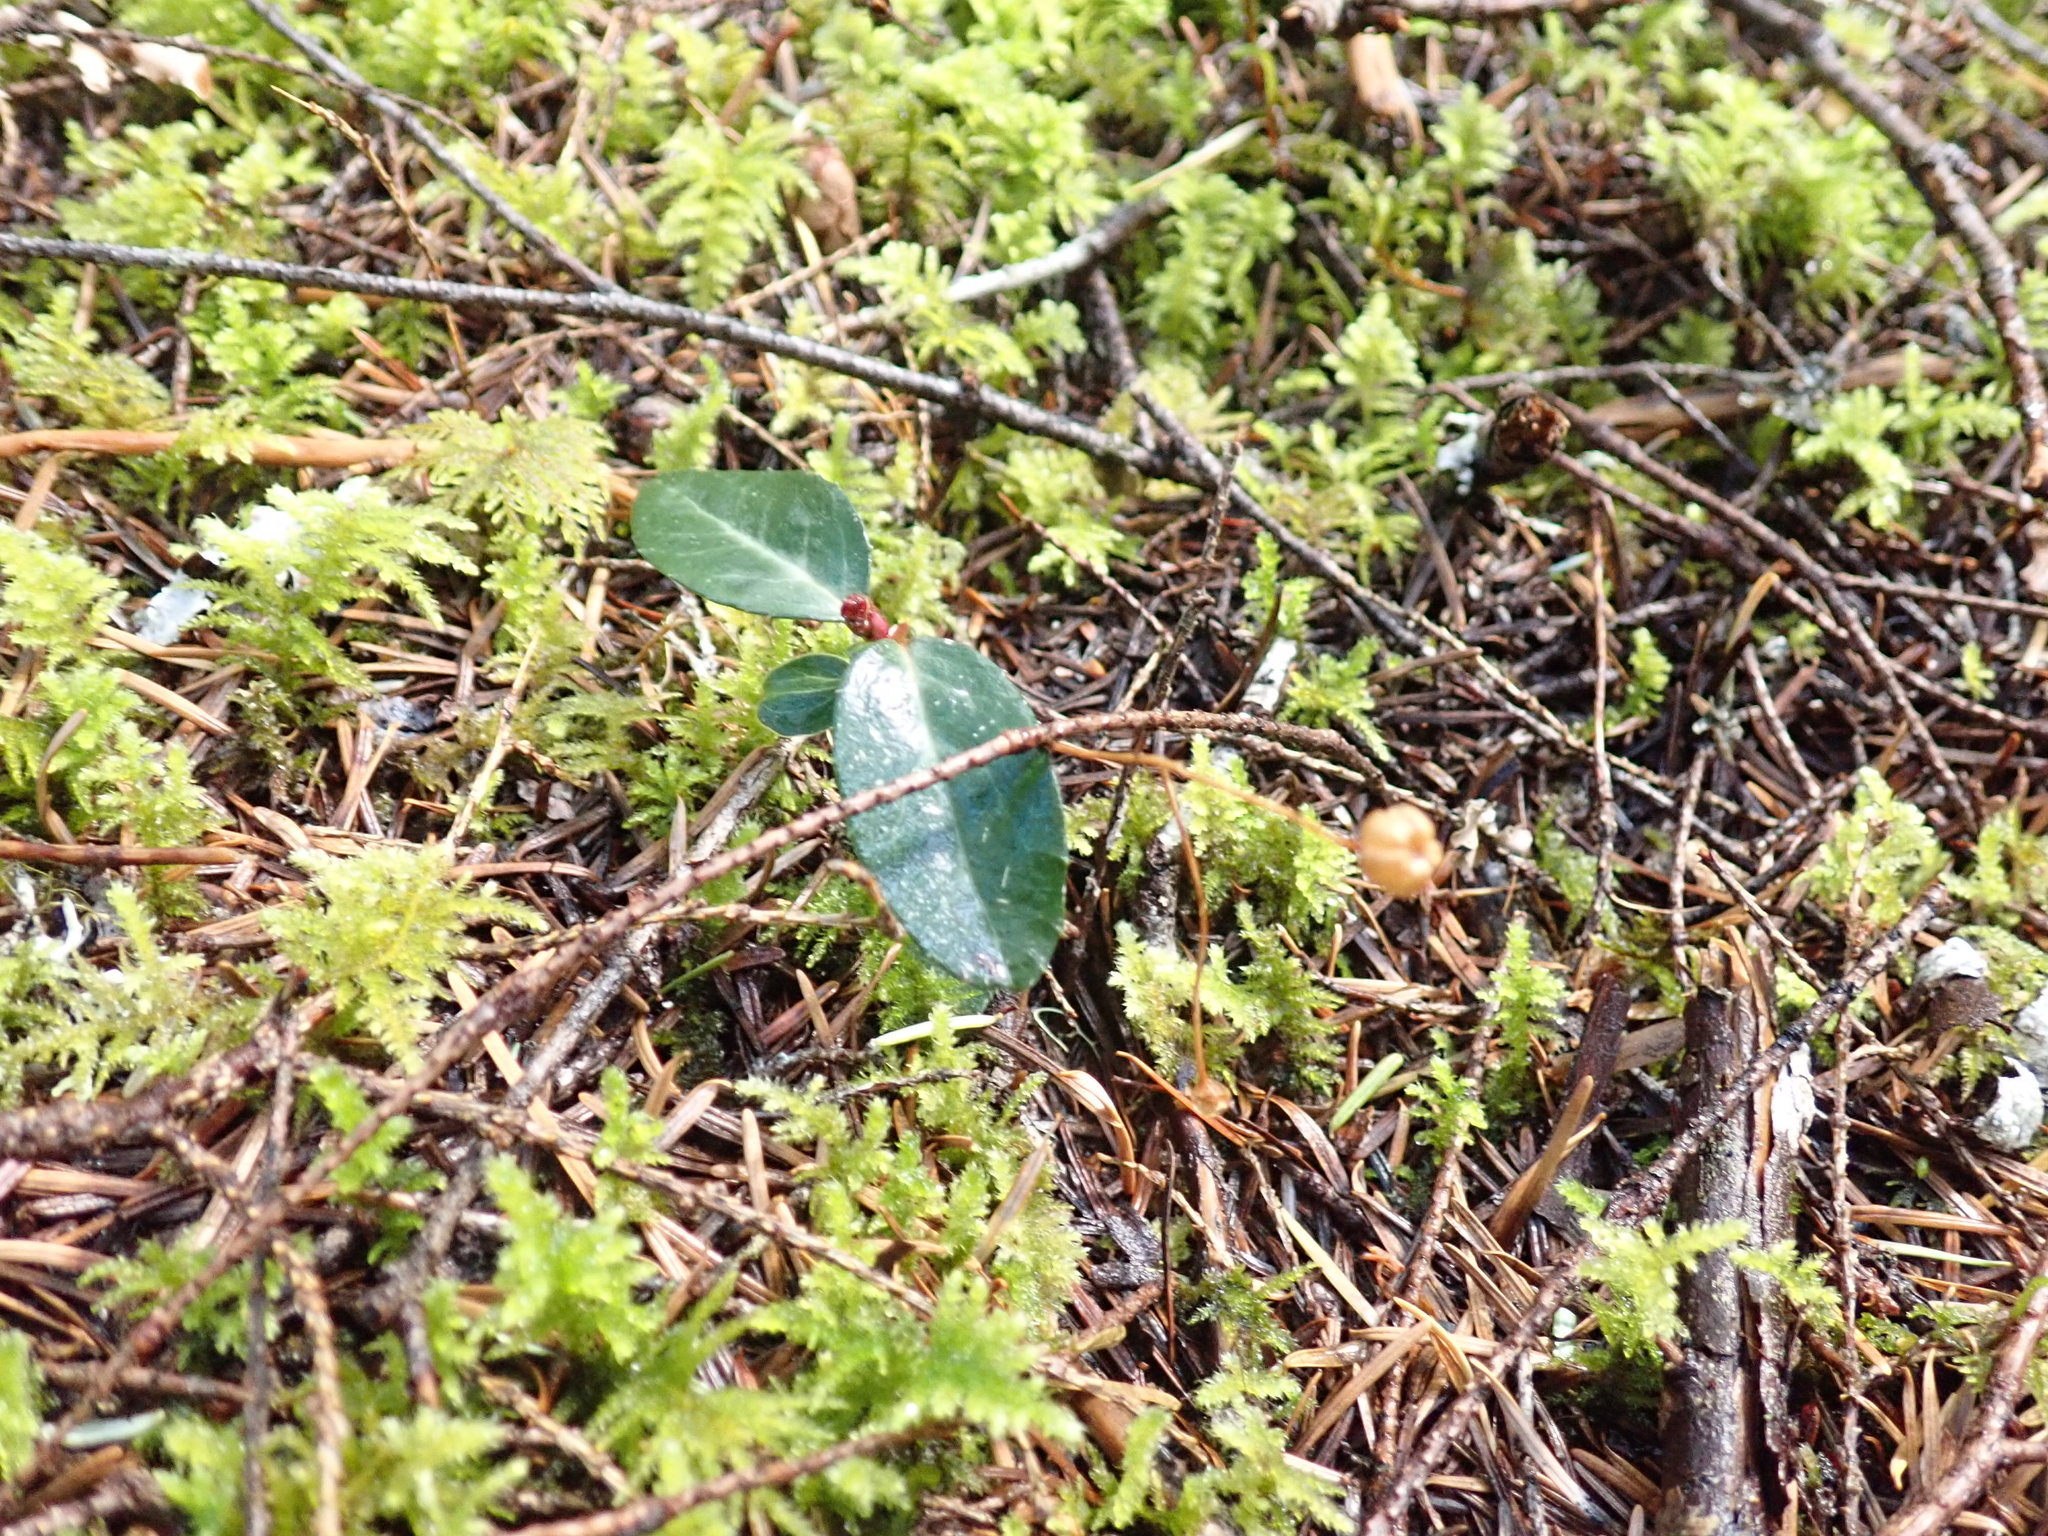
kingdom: Plantae
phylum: Tracheophyta
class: Magnoliopsida
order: Ericales
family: Ericaceae
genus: Chimaphila
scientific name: Chimaphila menziesii
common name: Menzies' pipsissewa
